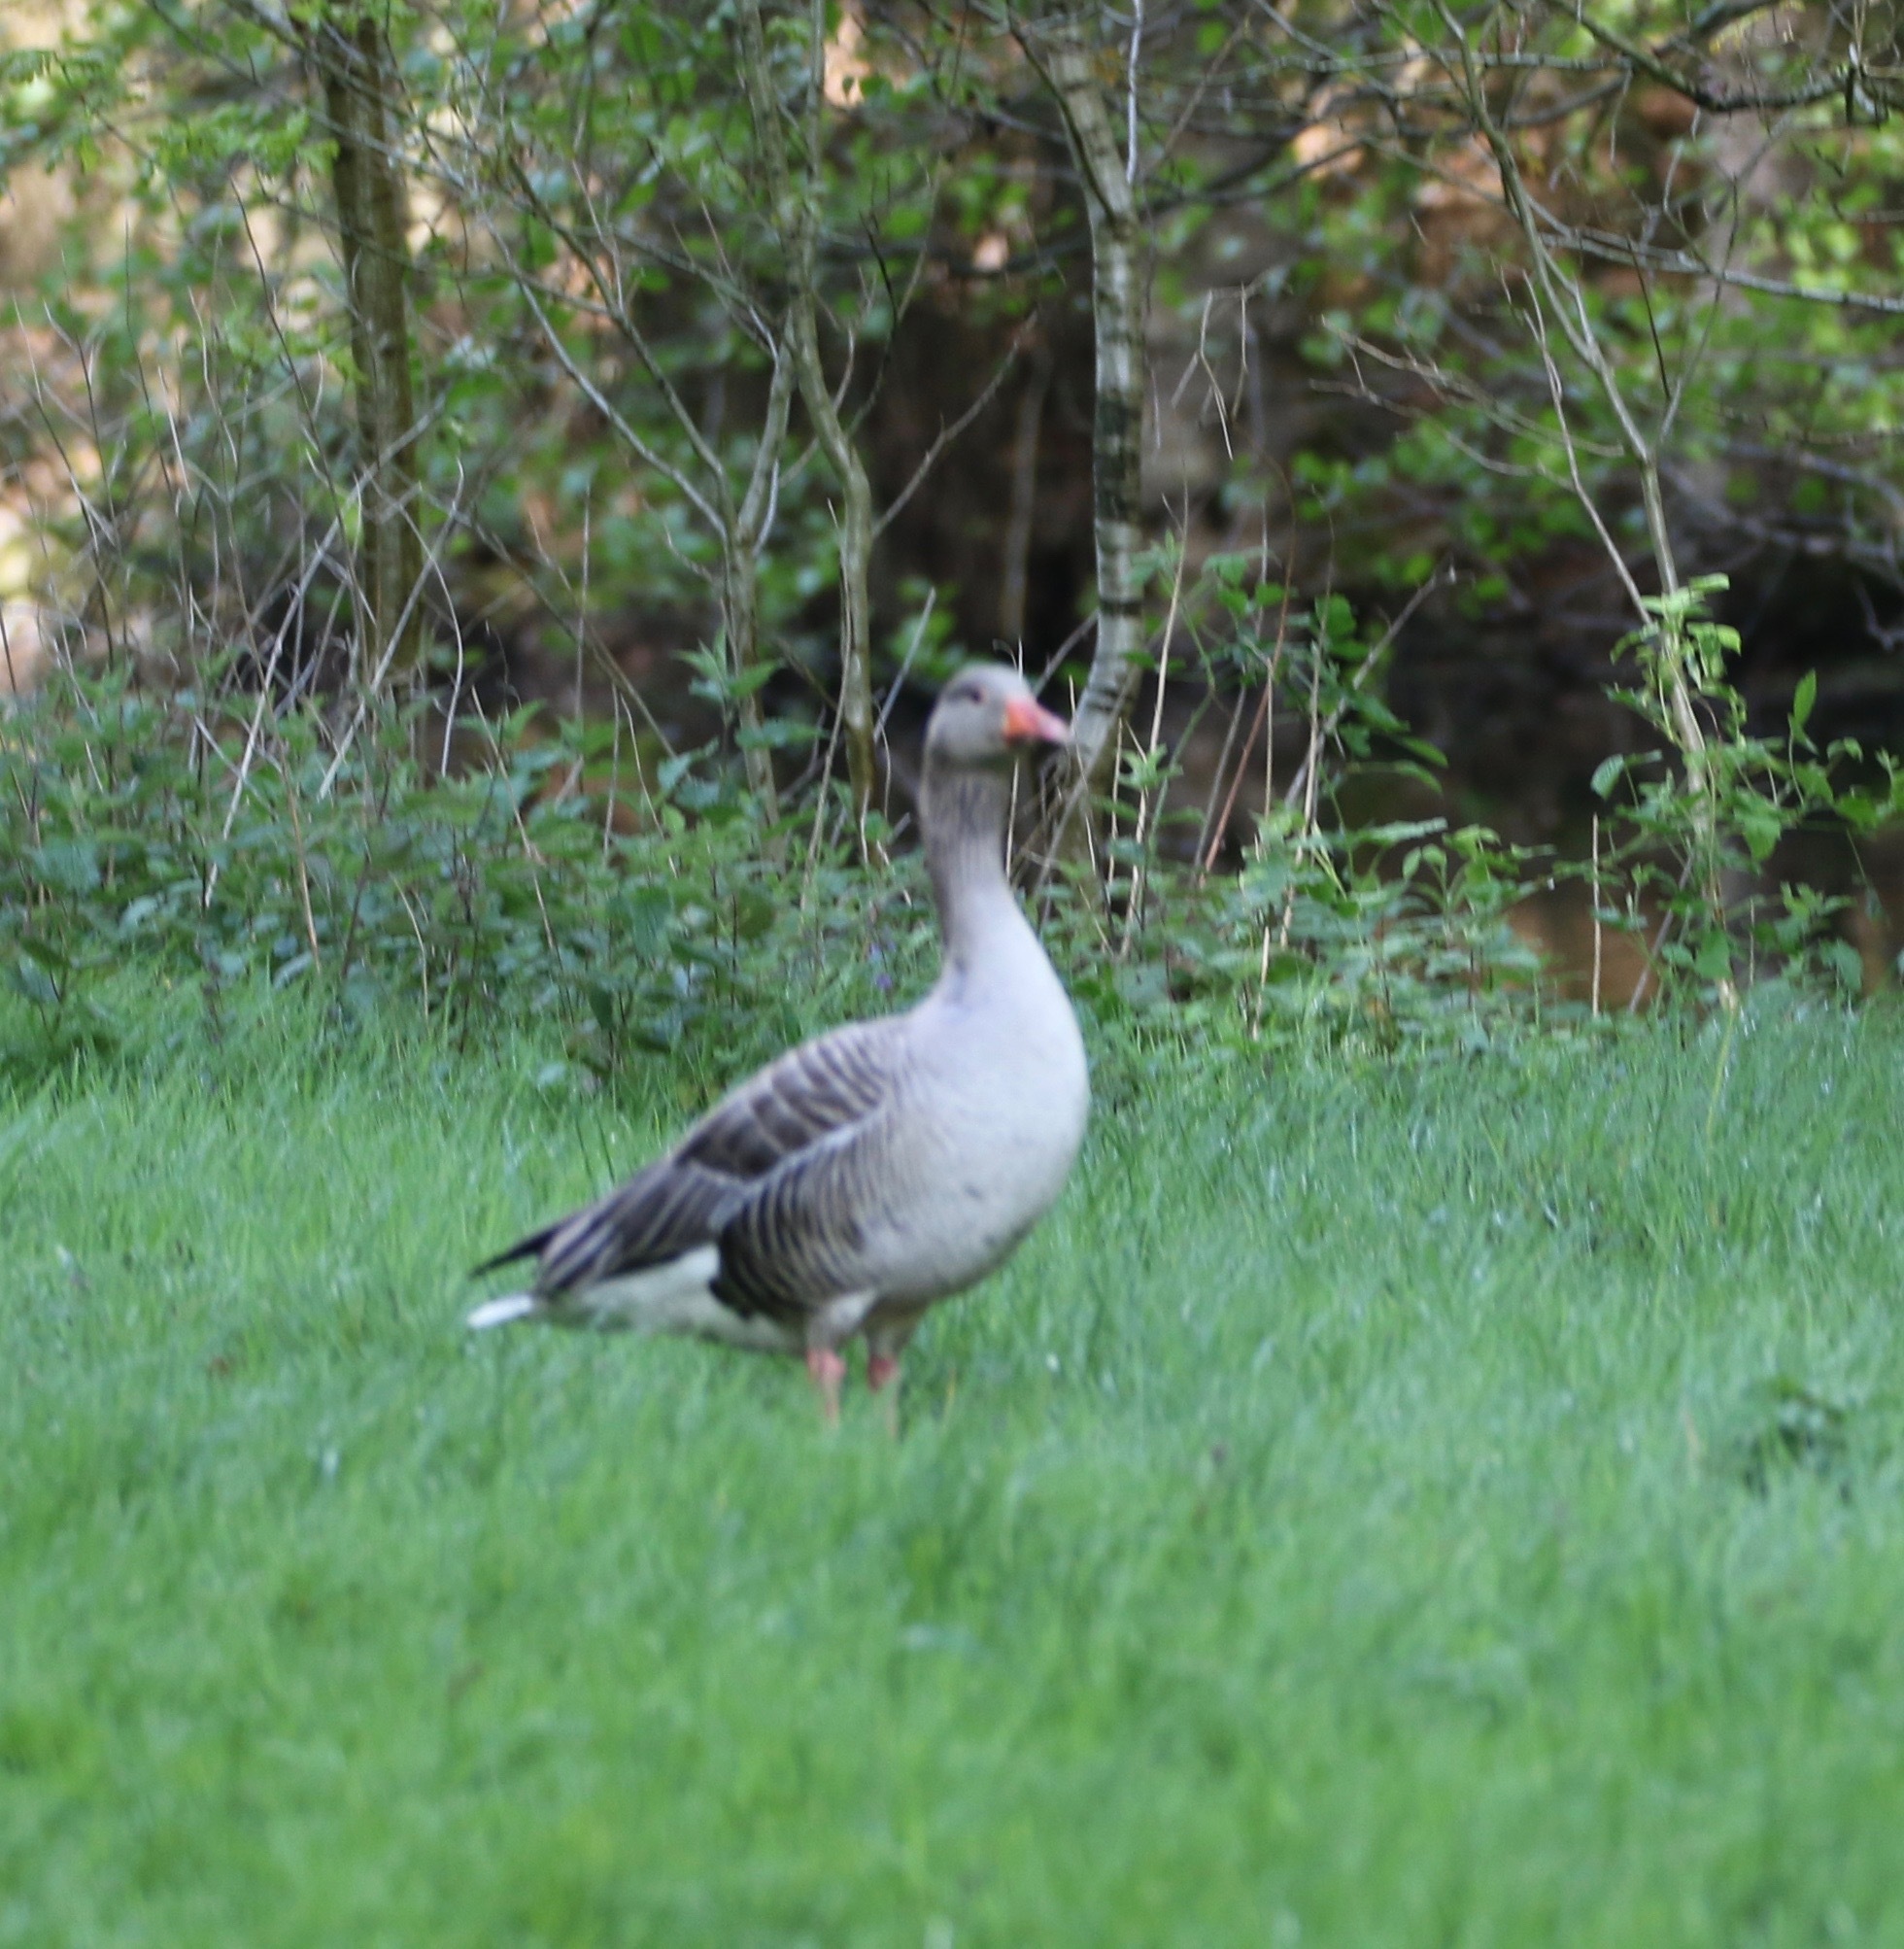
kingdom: Animalia
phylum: Chordata
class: Aves
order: Anseriformes
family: Anatidae
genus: Anser
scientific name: Anser anser
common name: Greylag goose
